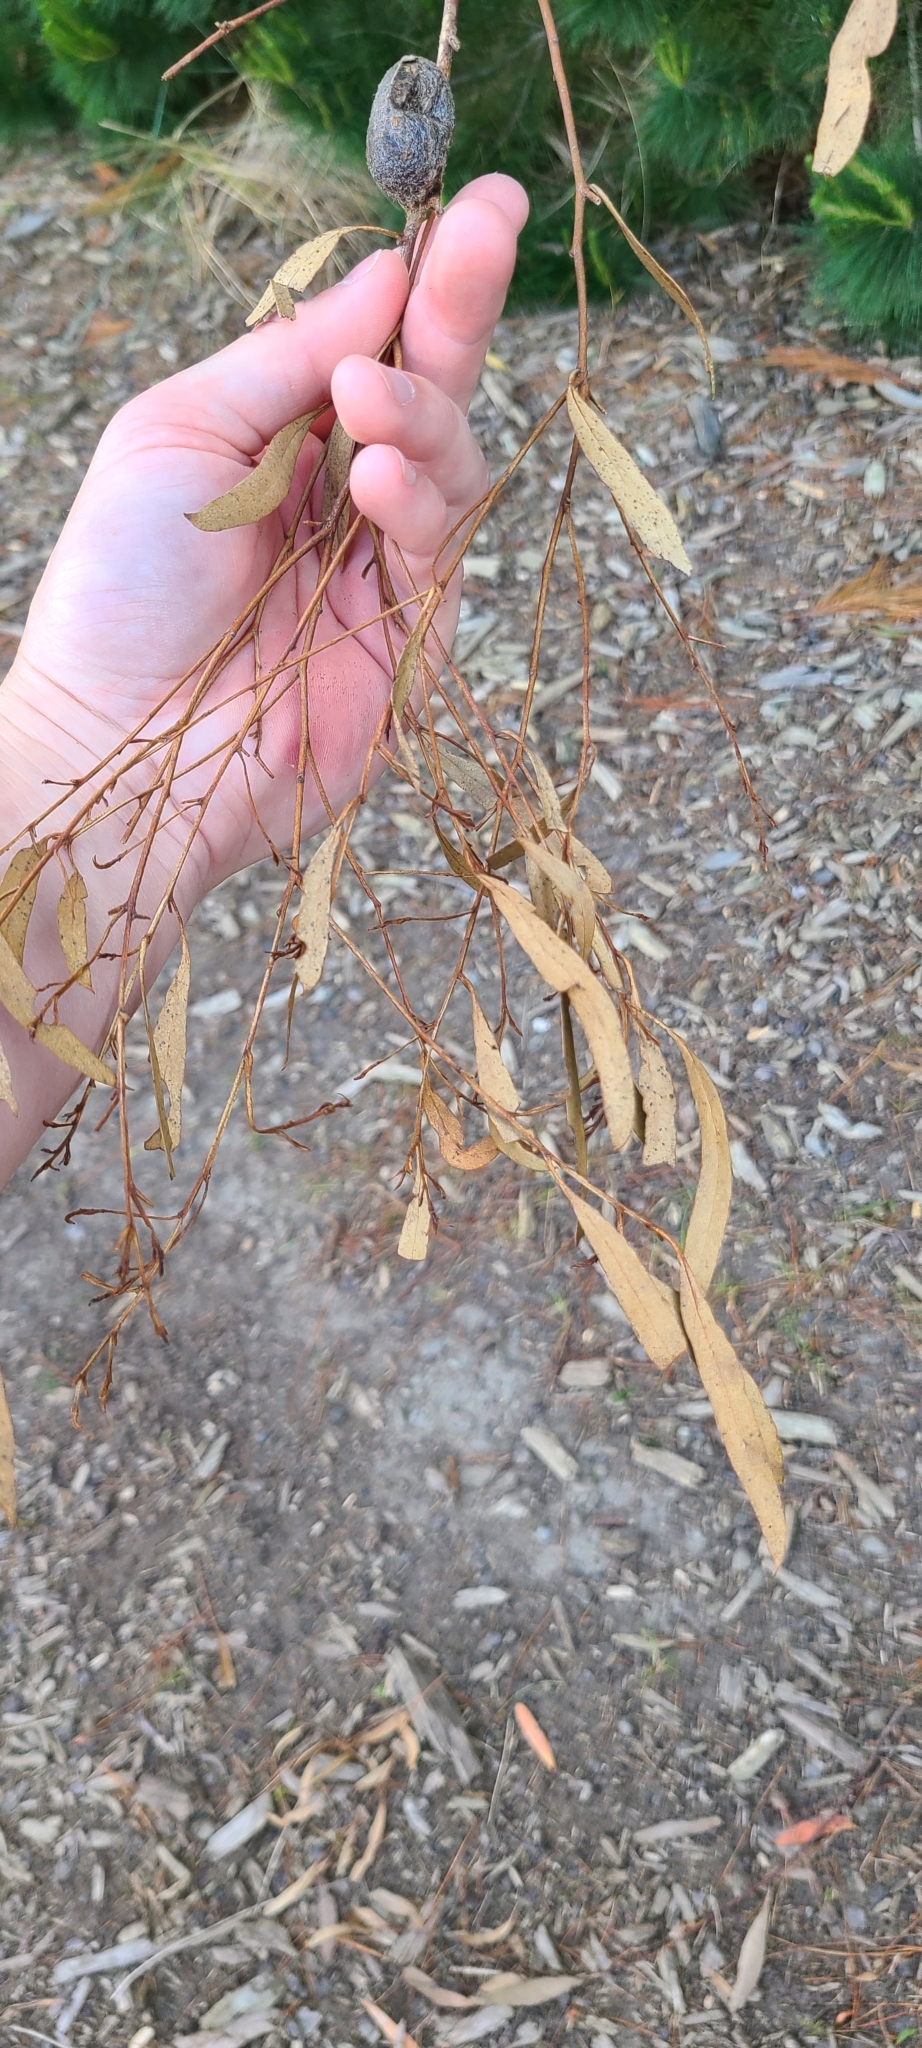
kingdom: Animalia
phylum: Arthropoda
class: Insecta
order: Lepidoptera
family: Saturniidae
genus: Opodiphthera
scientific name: Opodiphthera
